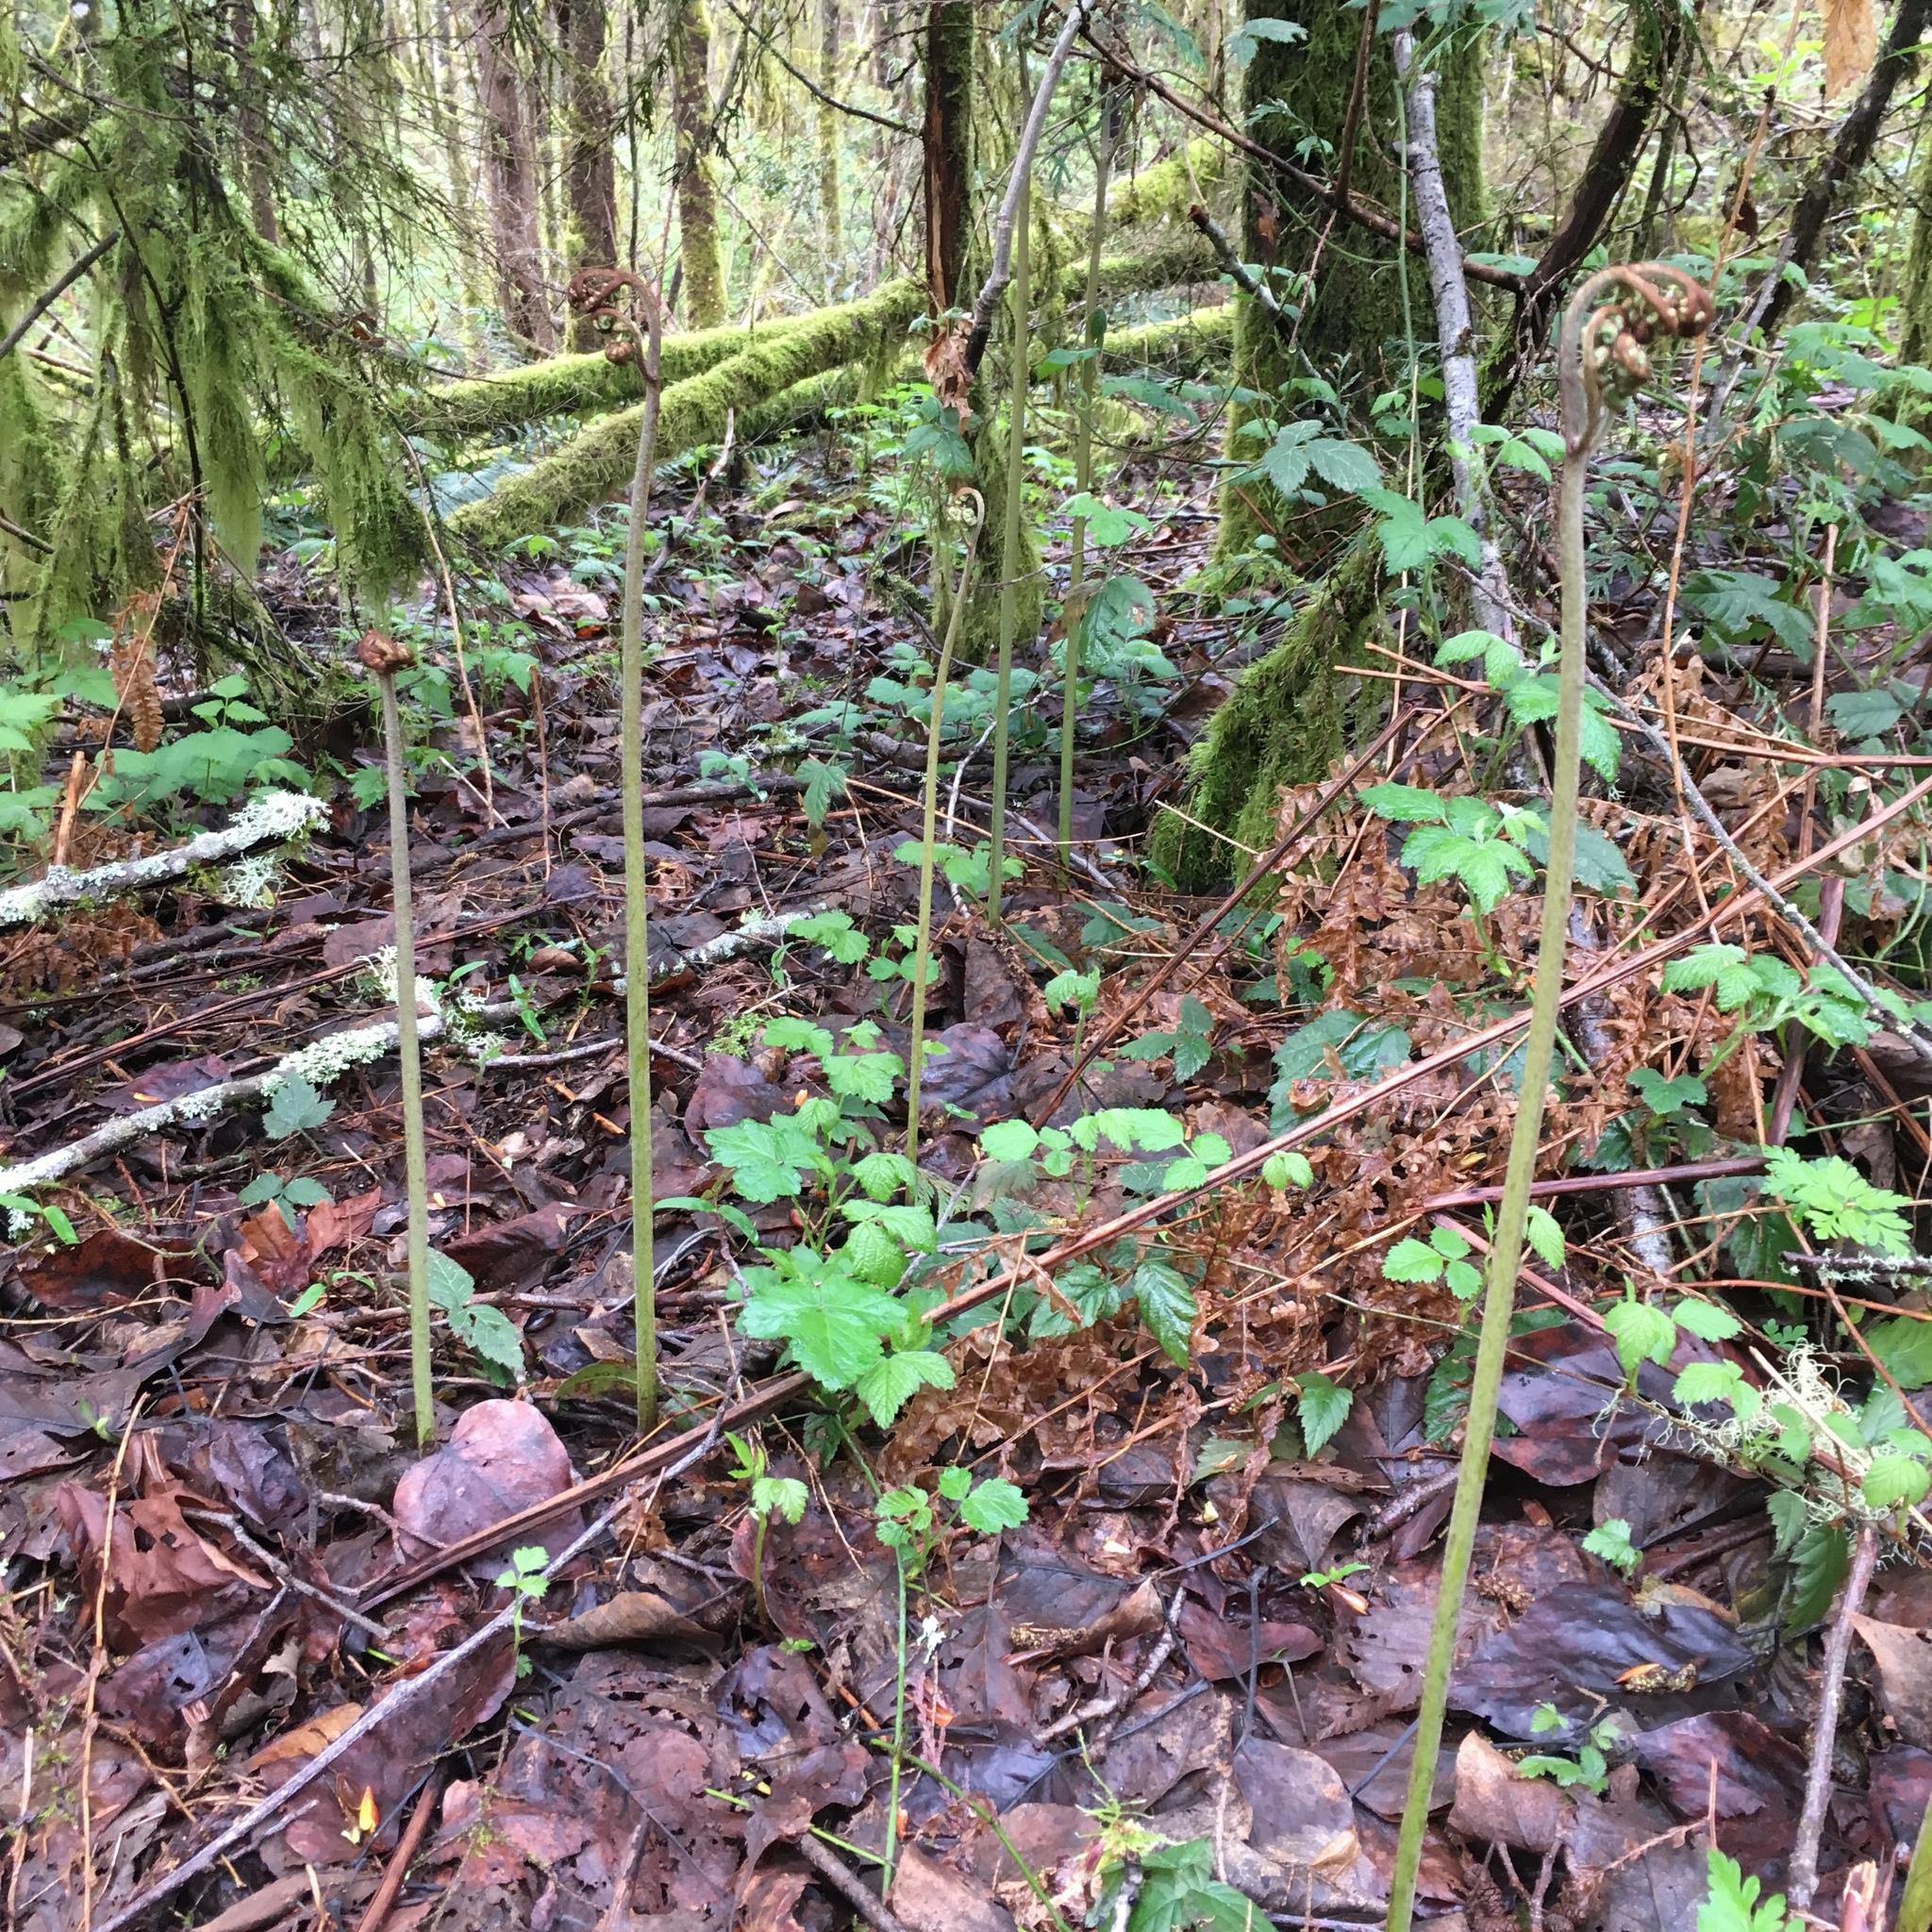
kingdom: Plantae
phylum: Tracheophyta
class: Polypodiopsida
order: Polypodiales
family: Dennstaedtiaceae
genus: Pteridium
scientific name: Pteridium aquilinum
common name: Bracken
